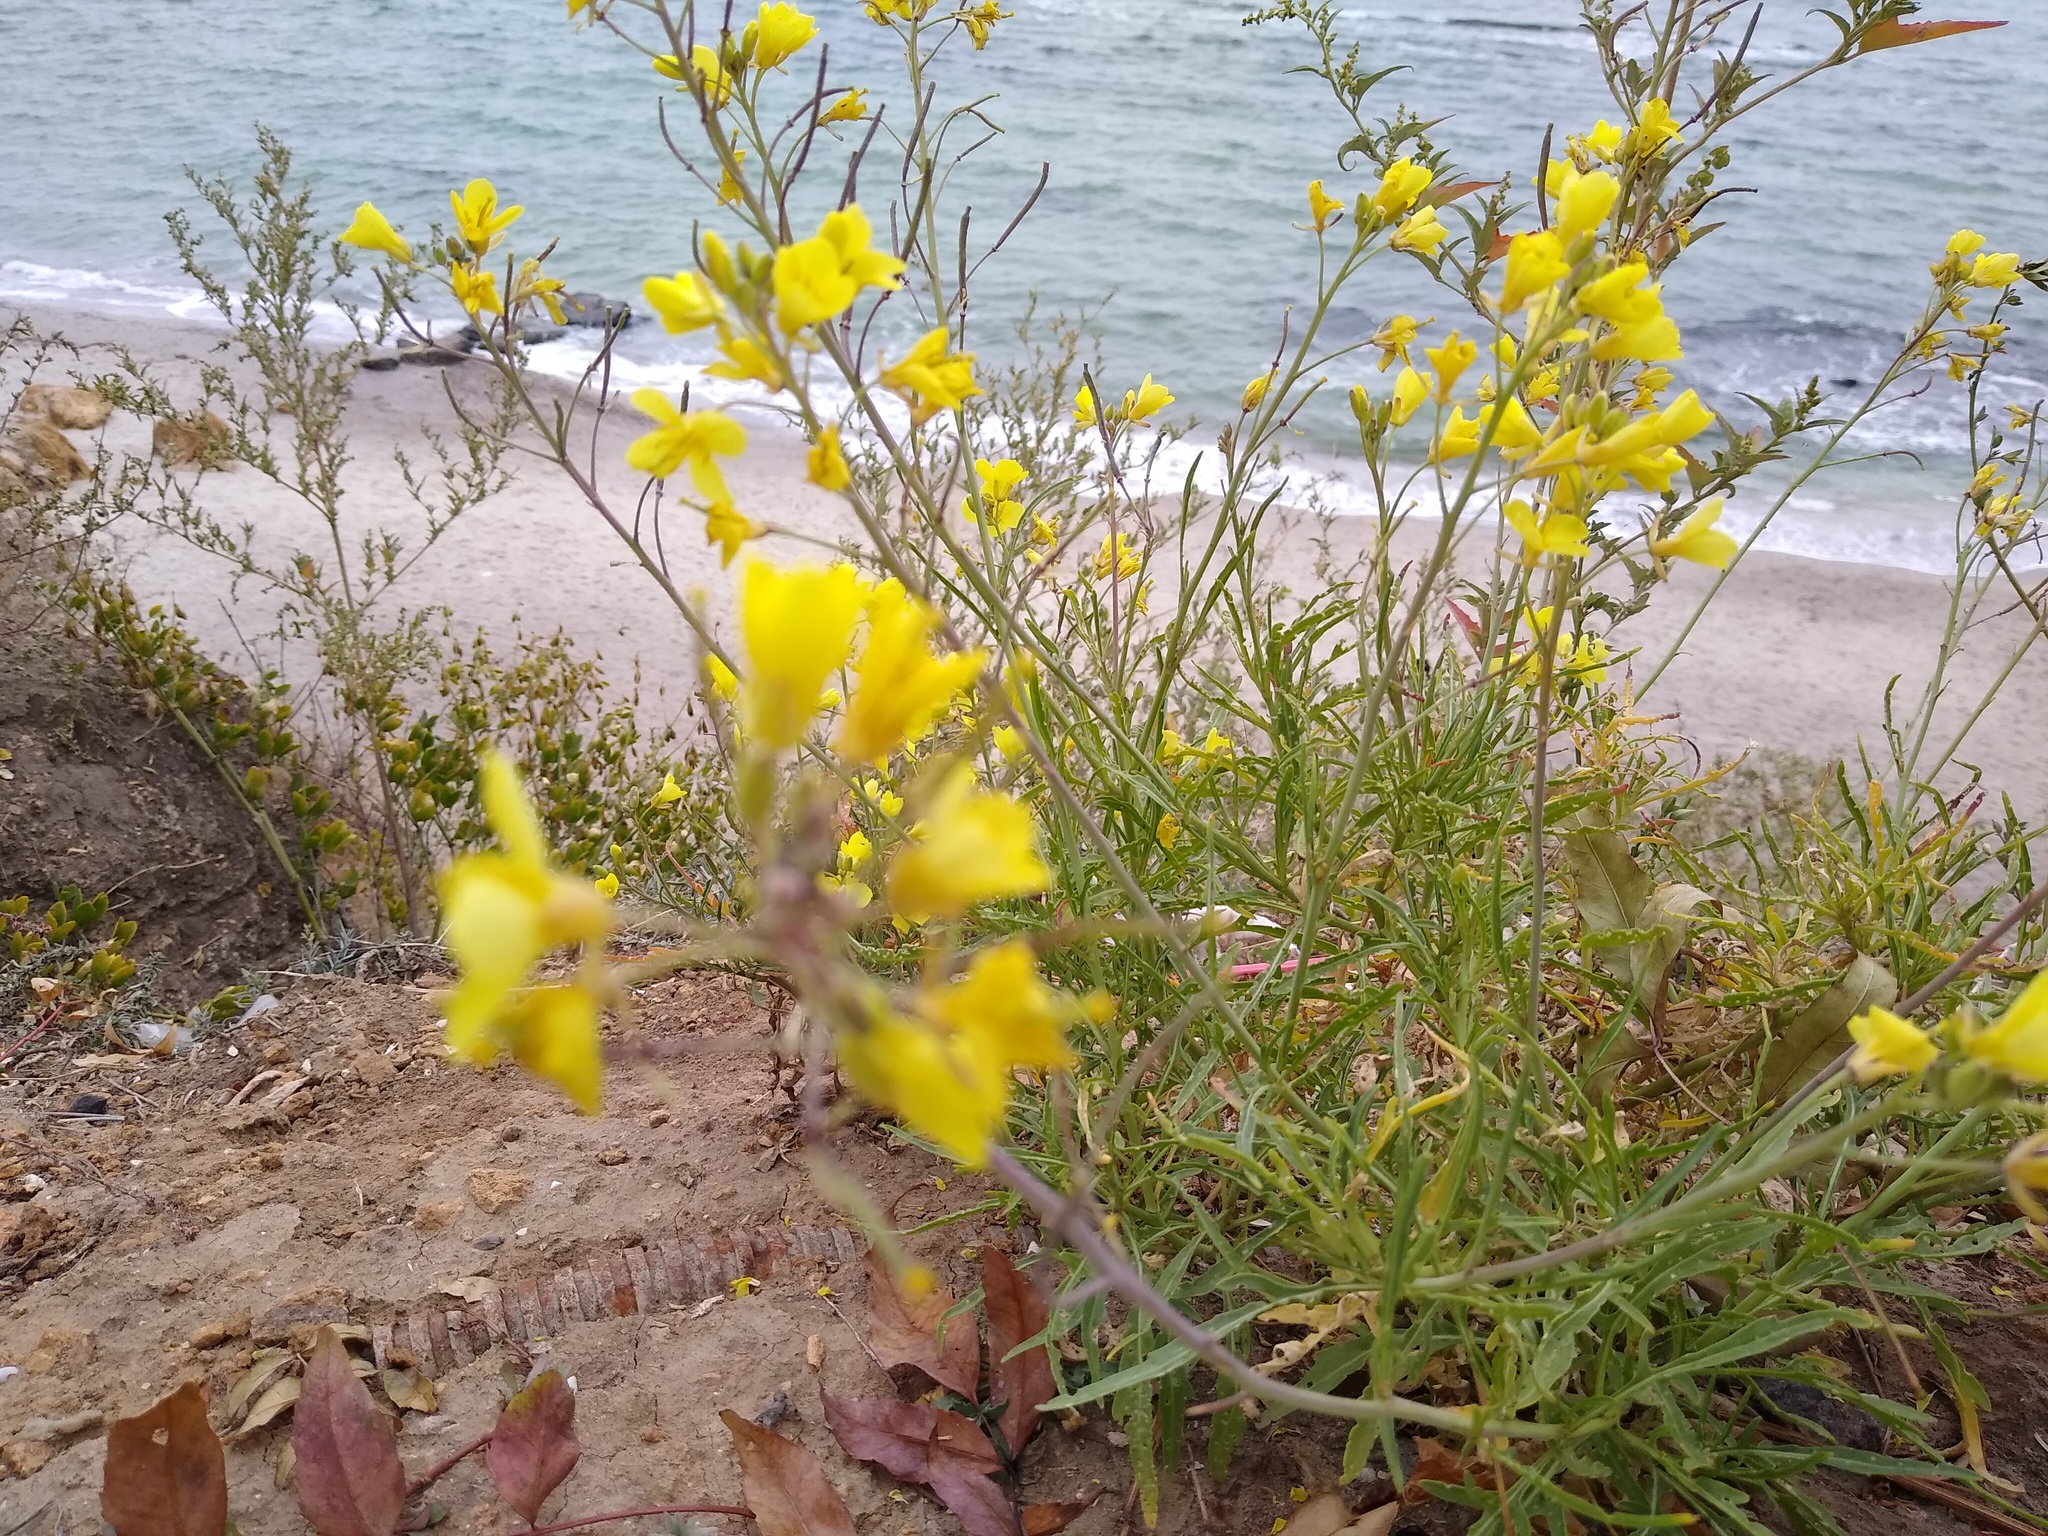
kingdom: Plantae
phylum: Tracheophyta
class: Magnoliopsida
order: Brassicales
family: Brassicaceae
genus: Diplotaxis
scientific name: Diplotaxis tenuifolia
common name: Perennial wall-rocket
